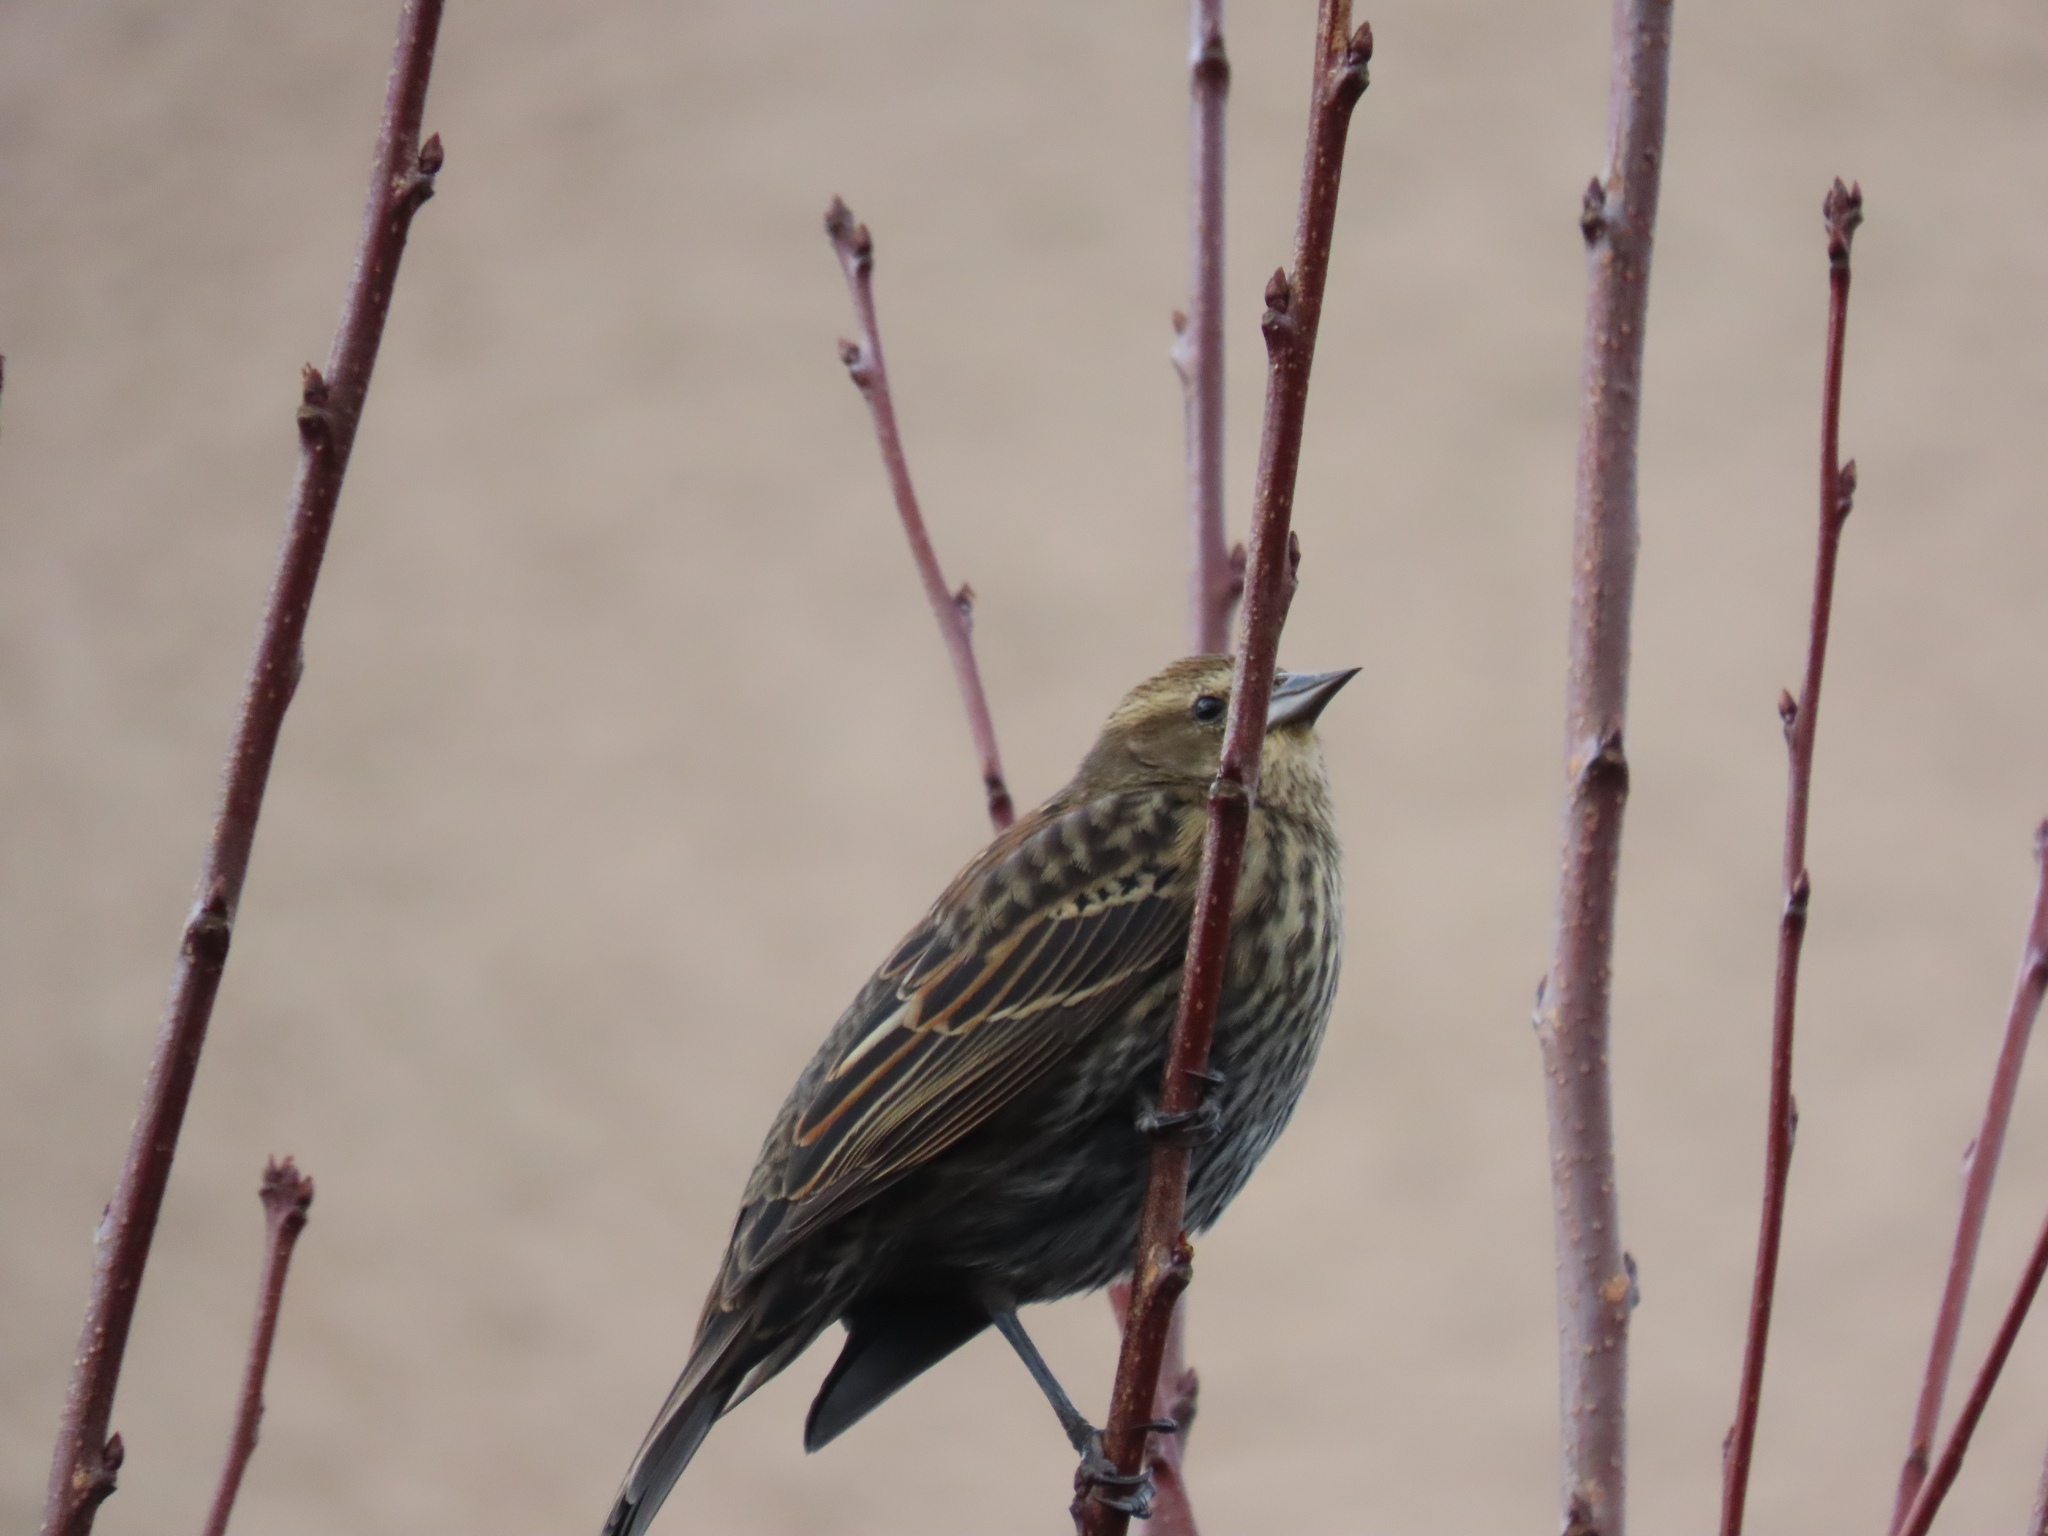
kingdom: Animalia
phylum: Chordata
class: Aves
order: Passeriformes
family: Icteridae
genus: Agelaius
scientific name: Agelaius phoeniceus
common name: Red-winged blackbird
